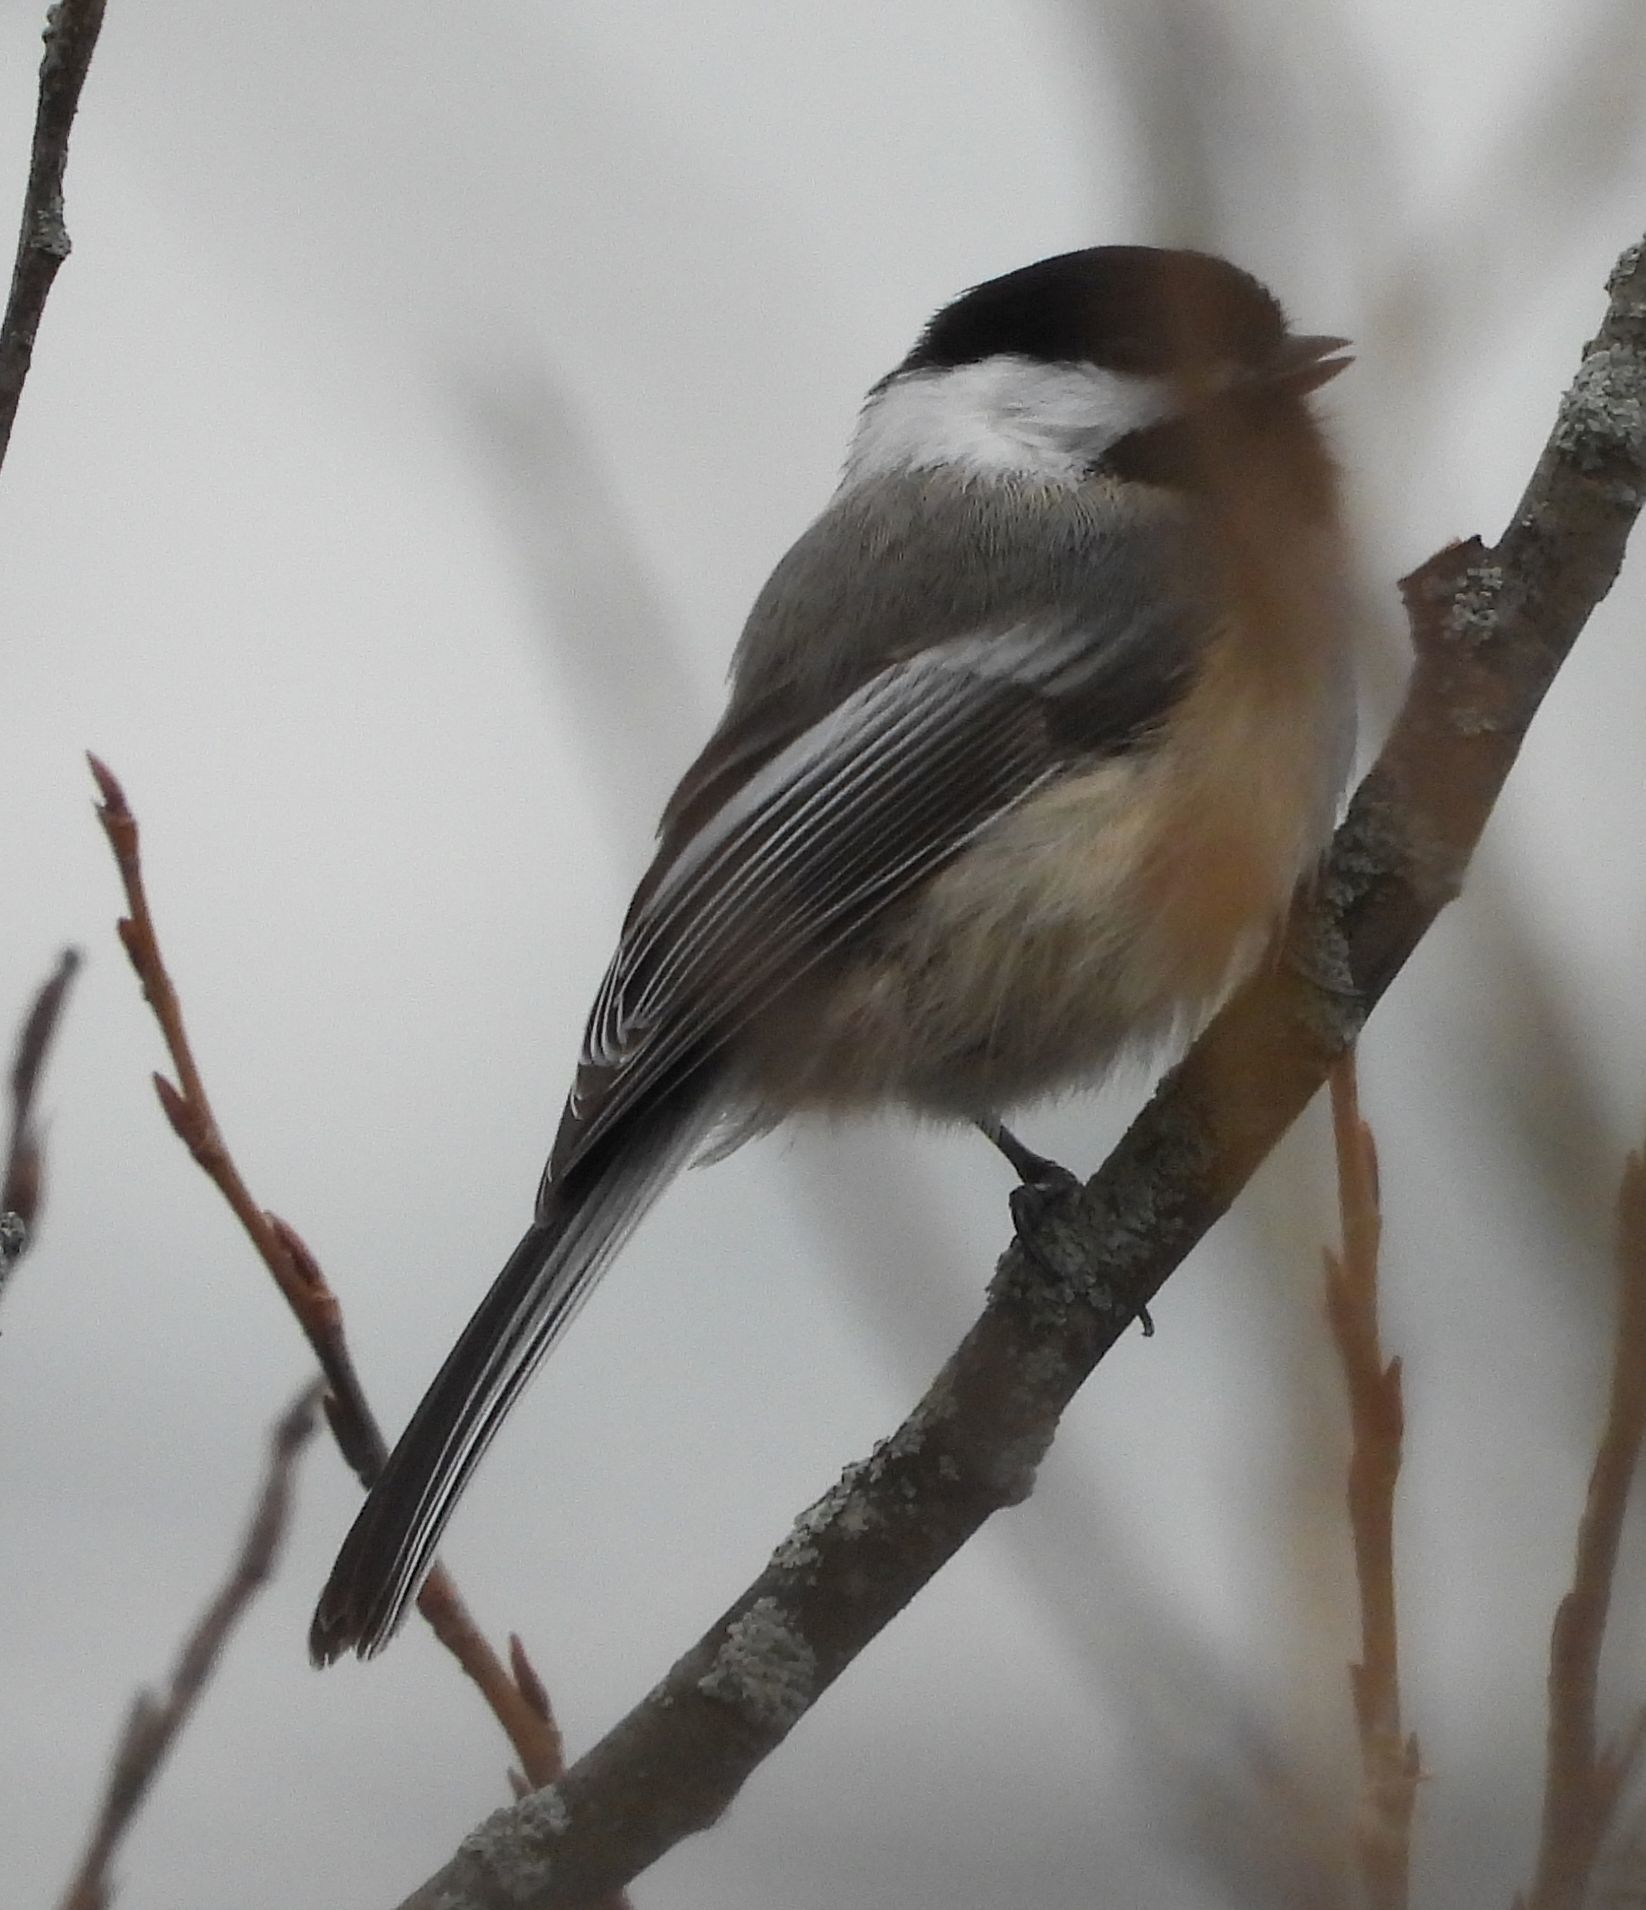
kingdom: Animalia
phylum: Chordata
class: Aves
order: Passeriformes
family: Paridae
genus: Poecile
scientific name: Poecile atricapillus
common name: Black-capped chickadee
